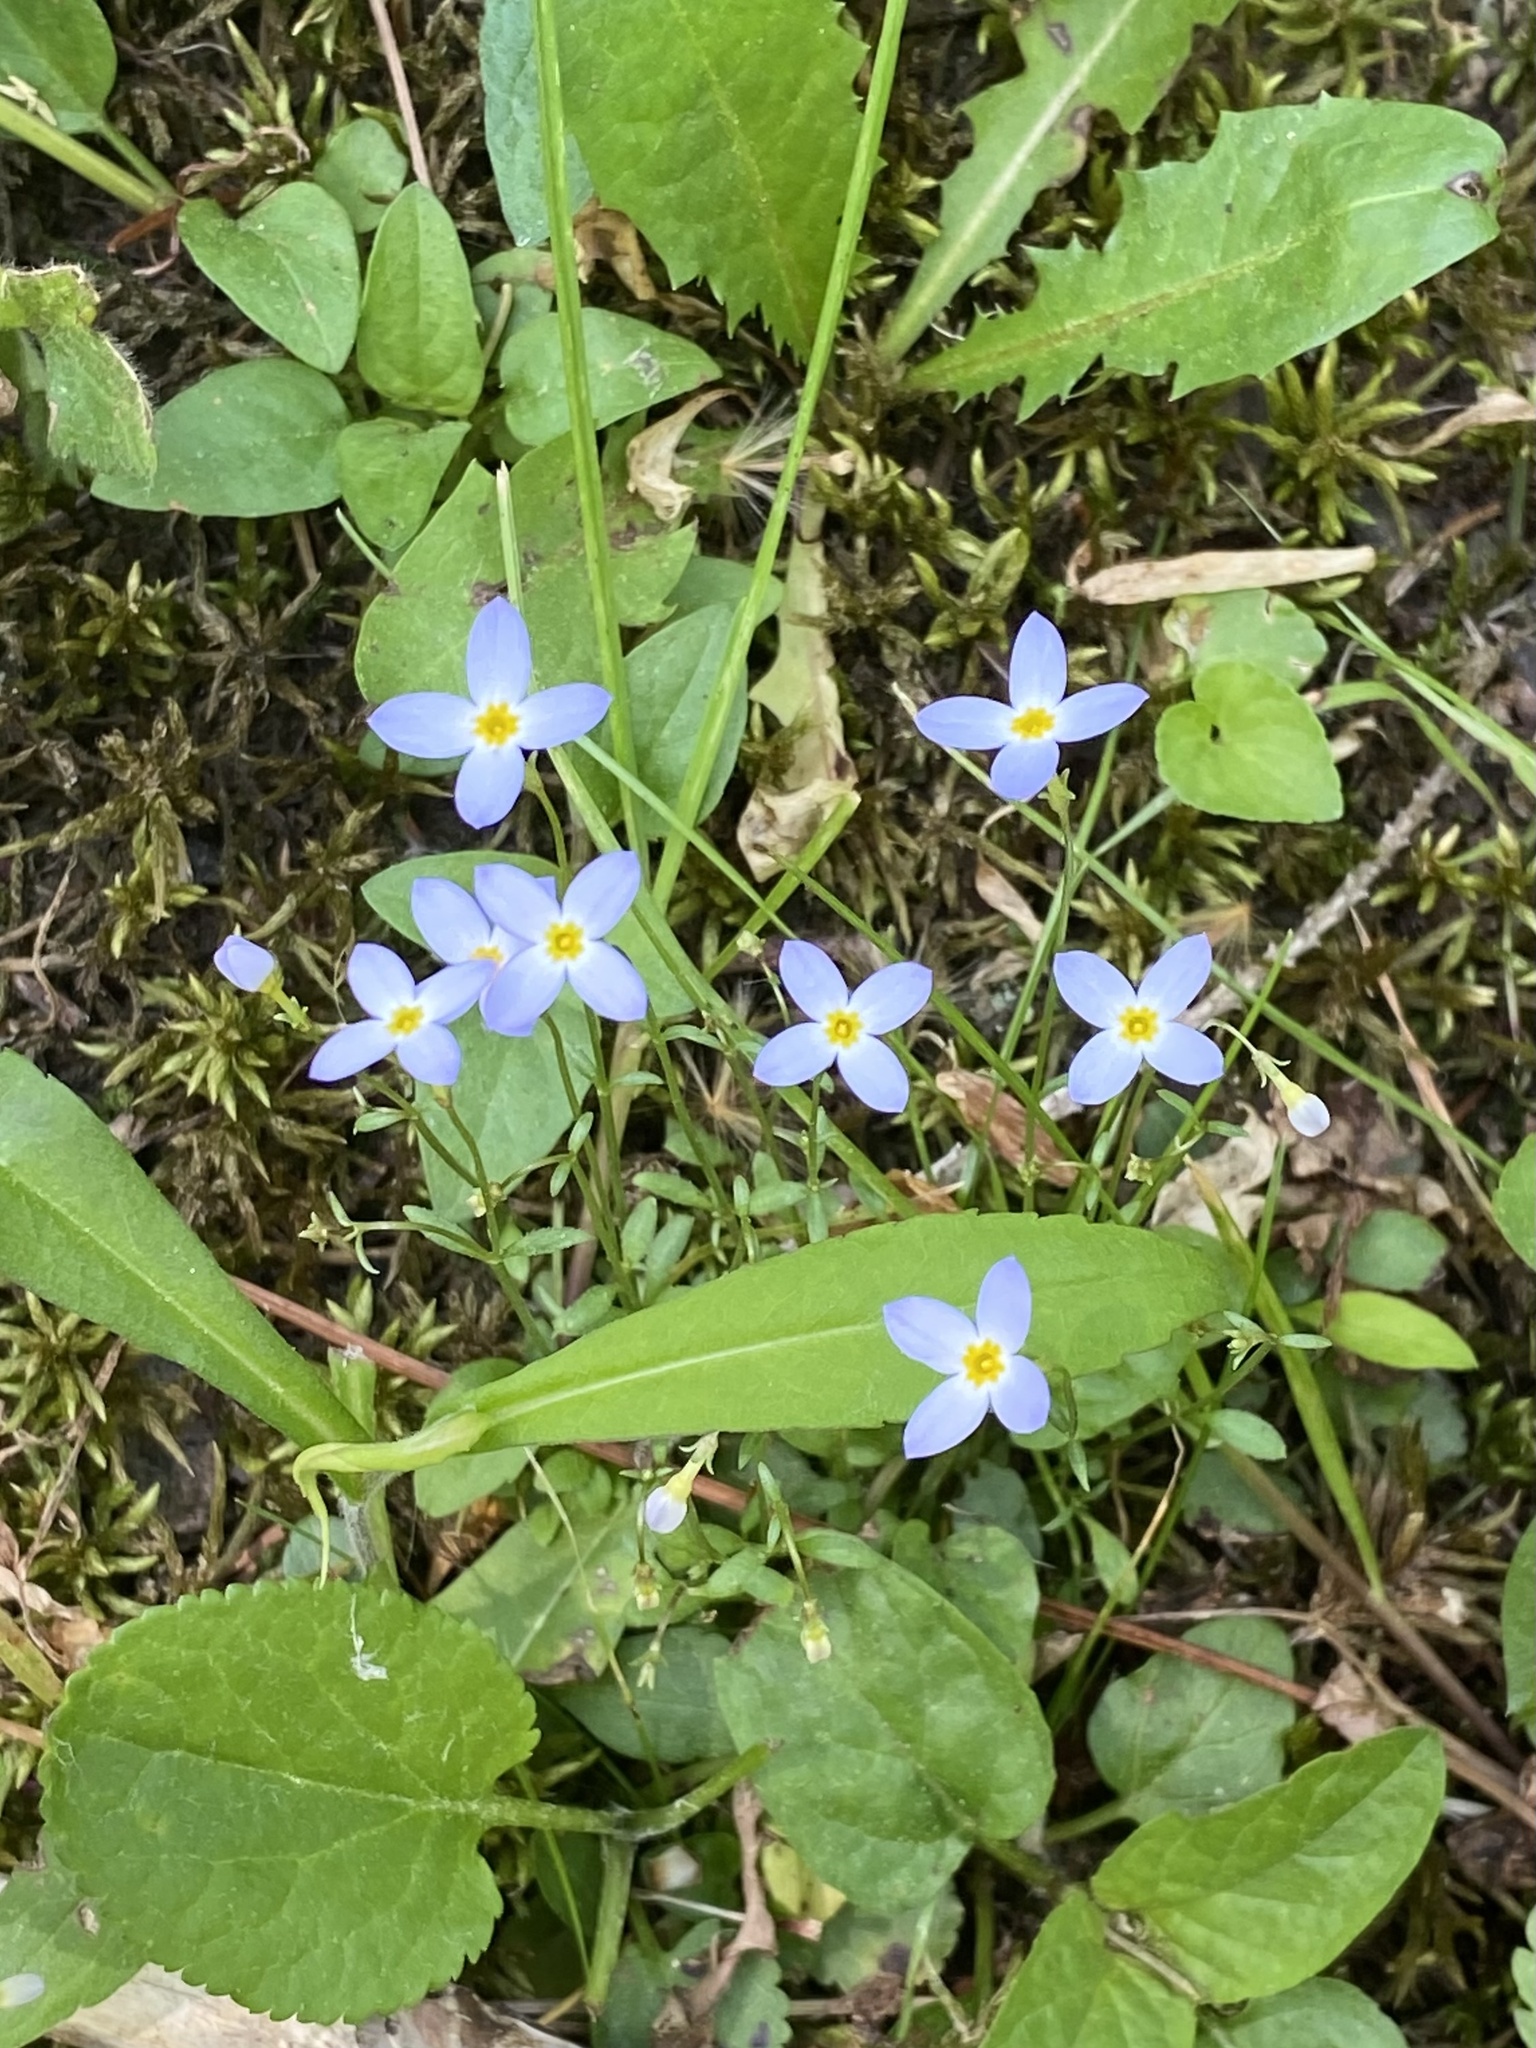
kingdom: Plantae
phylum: Tracheophyta
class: Magnoliopsida
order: Gentianales
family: Rubiaceae
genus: Houstonia
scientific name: Houstonia caerulea
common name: Bluets
